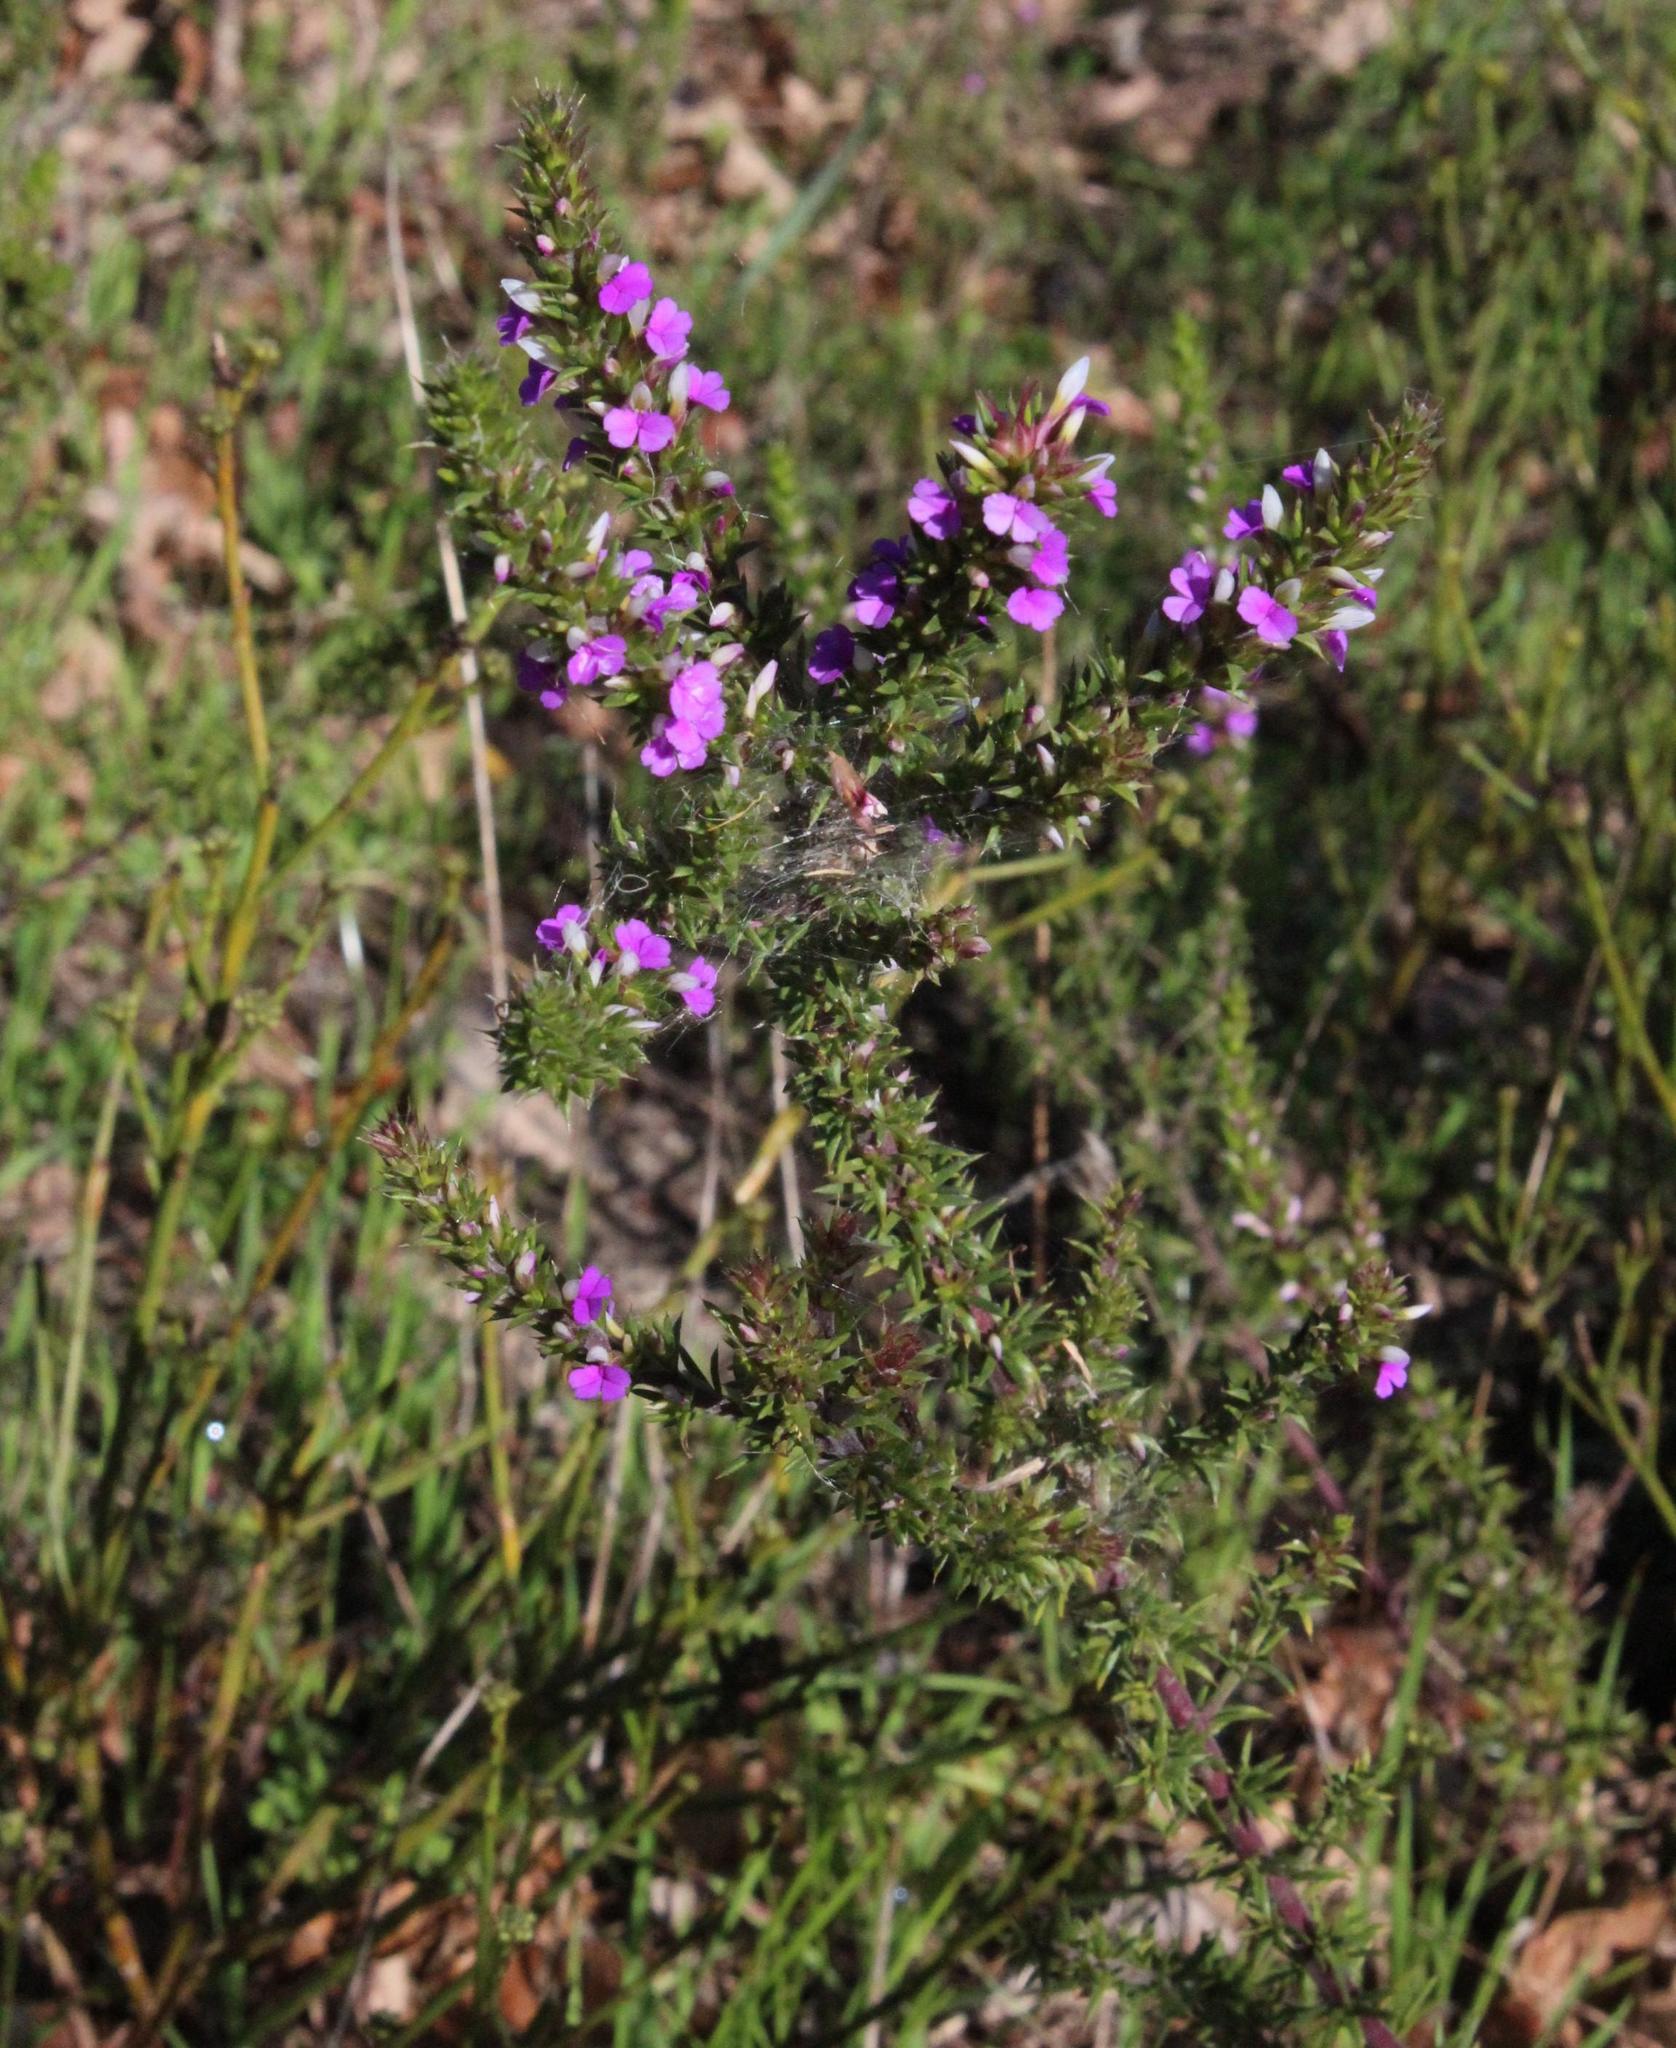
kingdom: Plantae
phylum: Tracheophyta
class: Magnoliopsida
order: Fabales
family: Polygalaceae
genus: Muraltia
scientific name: Muraltia heisteria
